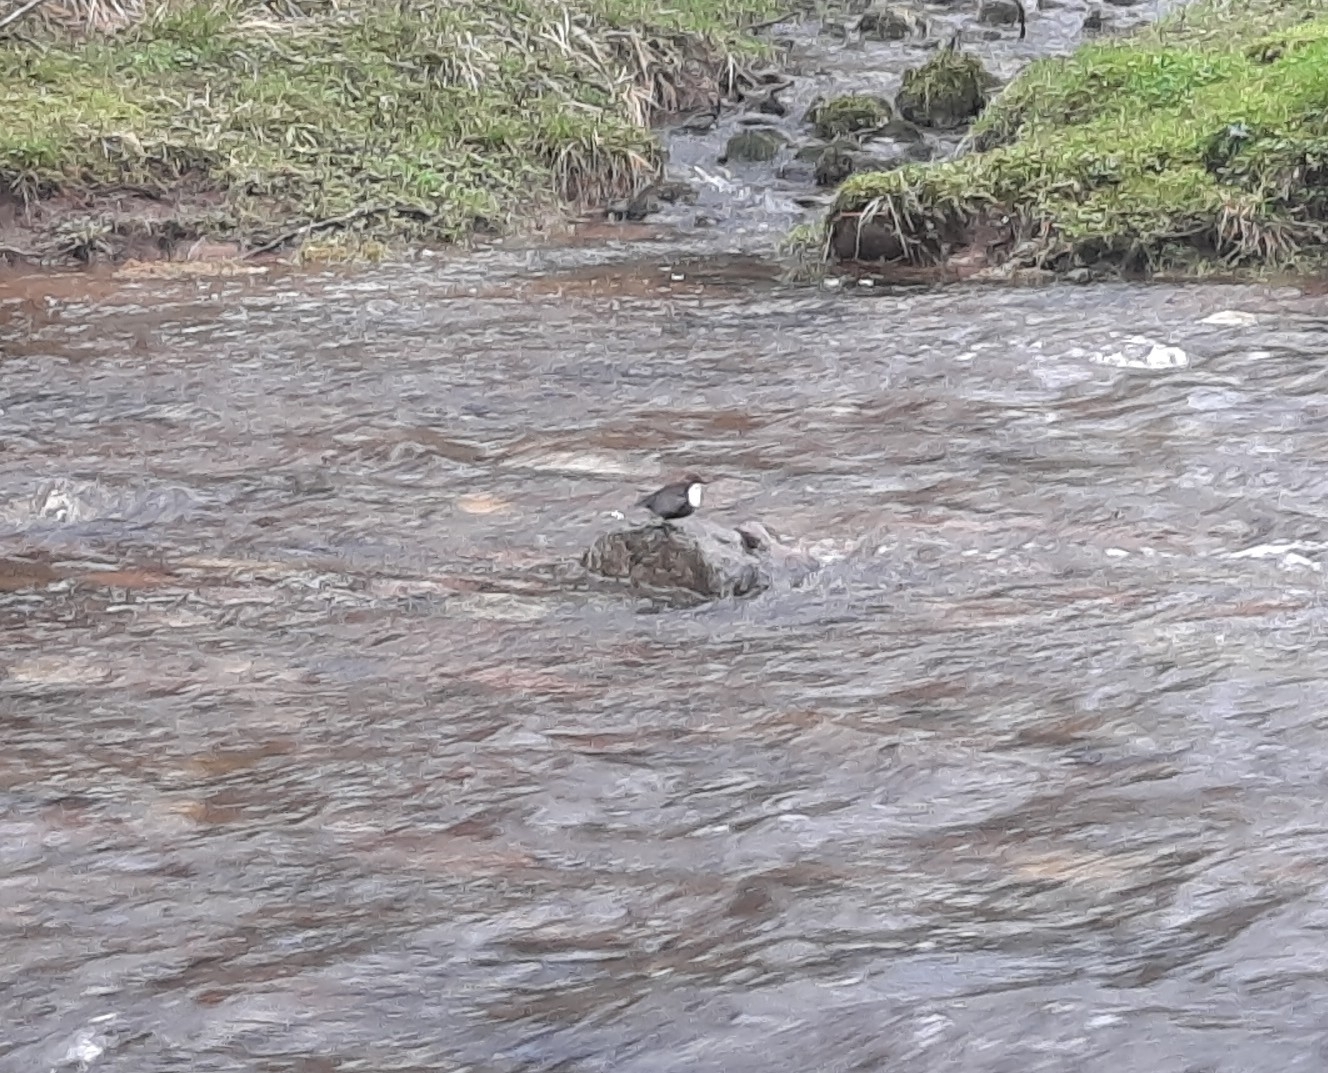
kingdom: Animalia
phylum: Chordata
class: Aves
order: Passeriformes
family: Cinclidae
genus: Cinclus
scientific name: Cinclus cinclus
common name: White-throated dipper
